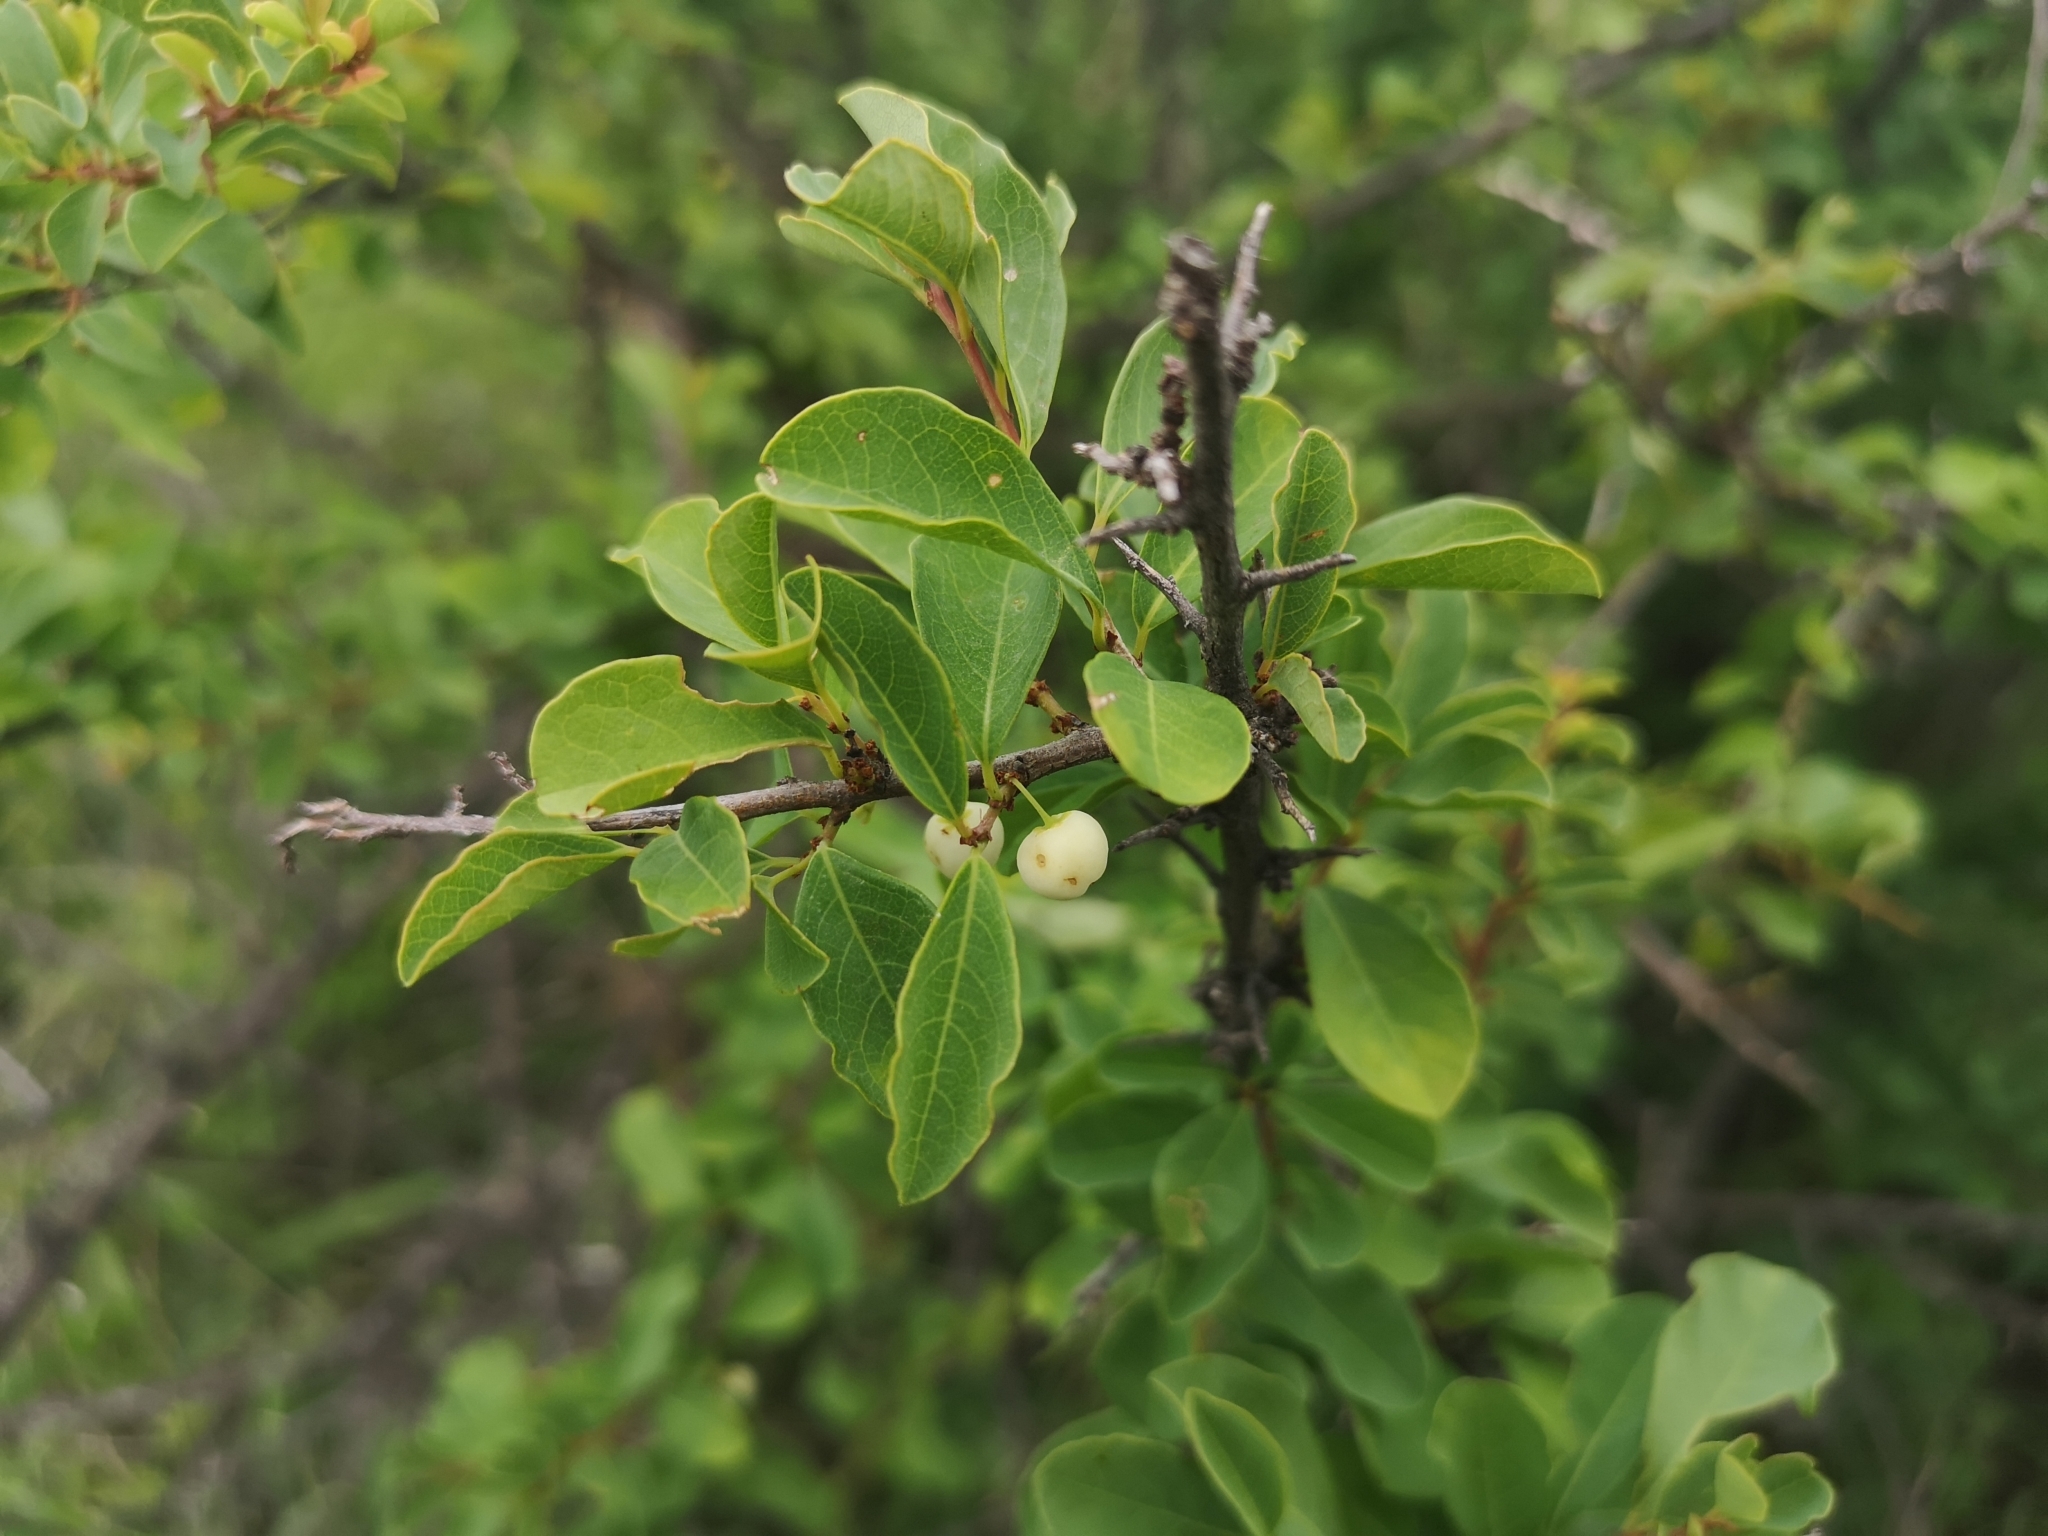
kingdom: Plantae
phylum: Tracheophyta
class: Magnoliopsida
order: Malpighiales
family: Phyllanthaceae
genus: Flueggea
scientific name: Flueggea virosa
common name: Common bushweed
